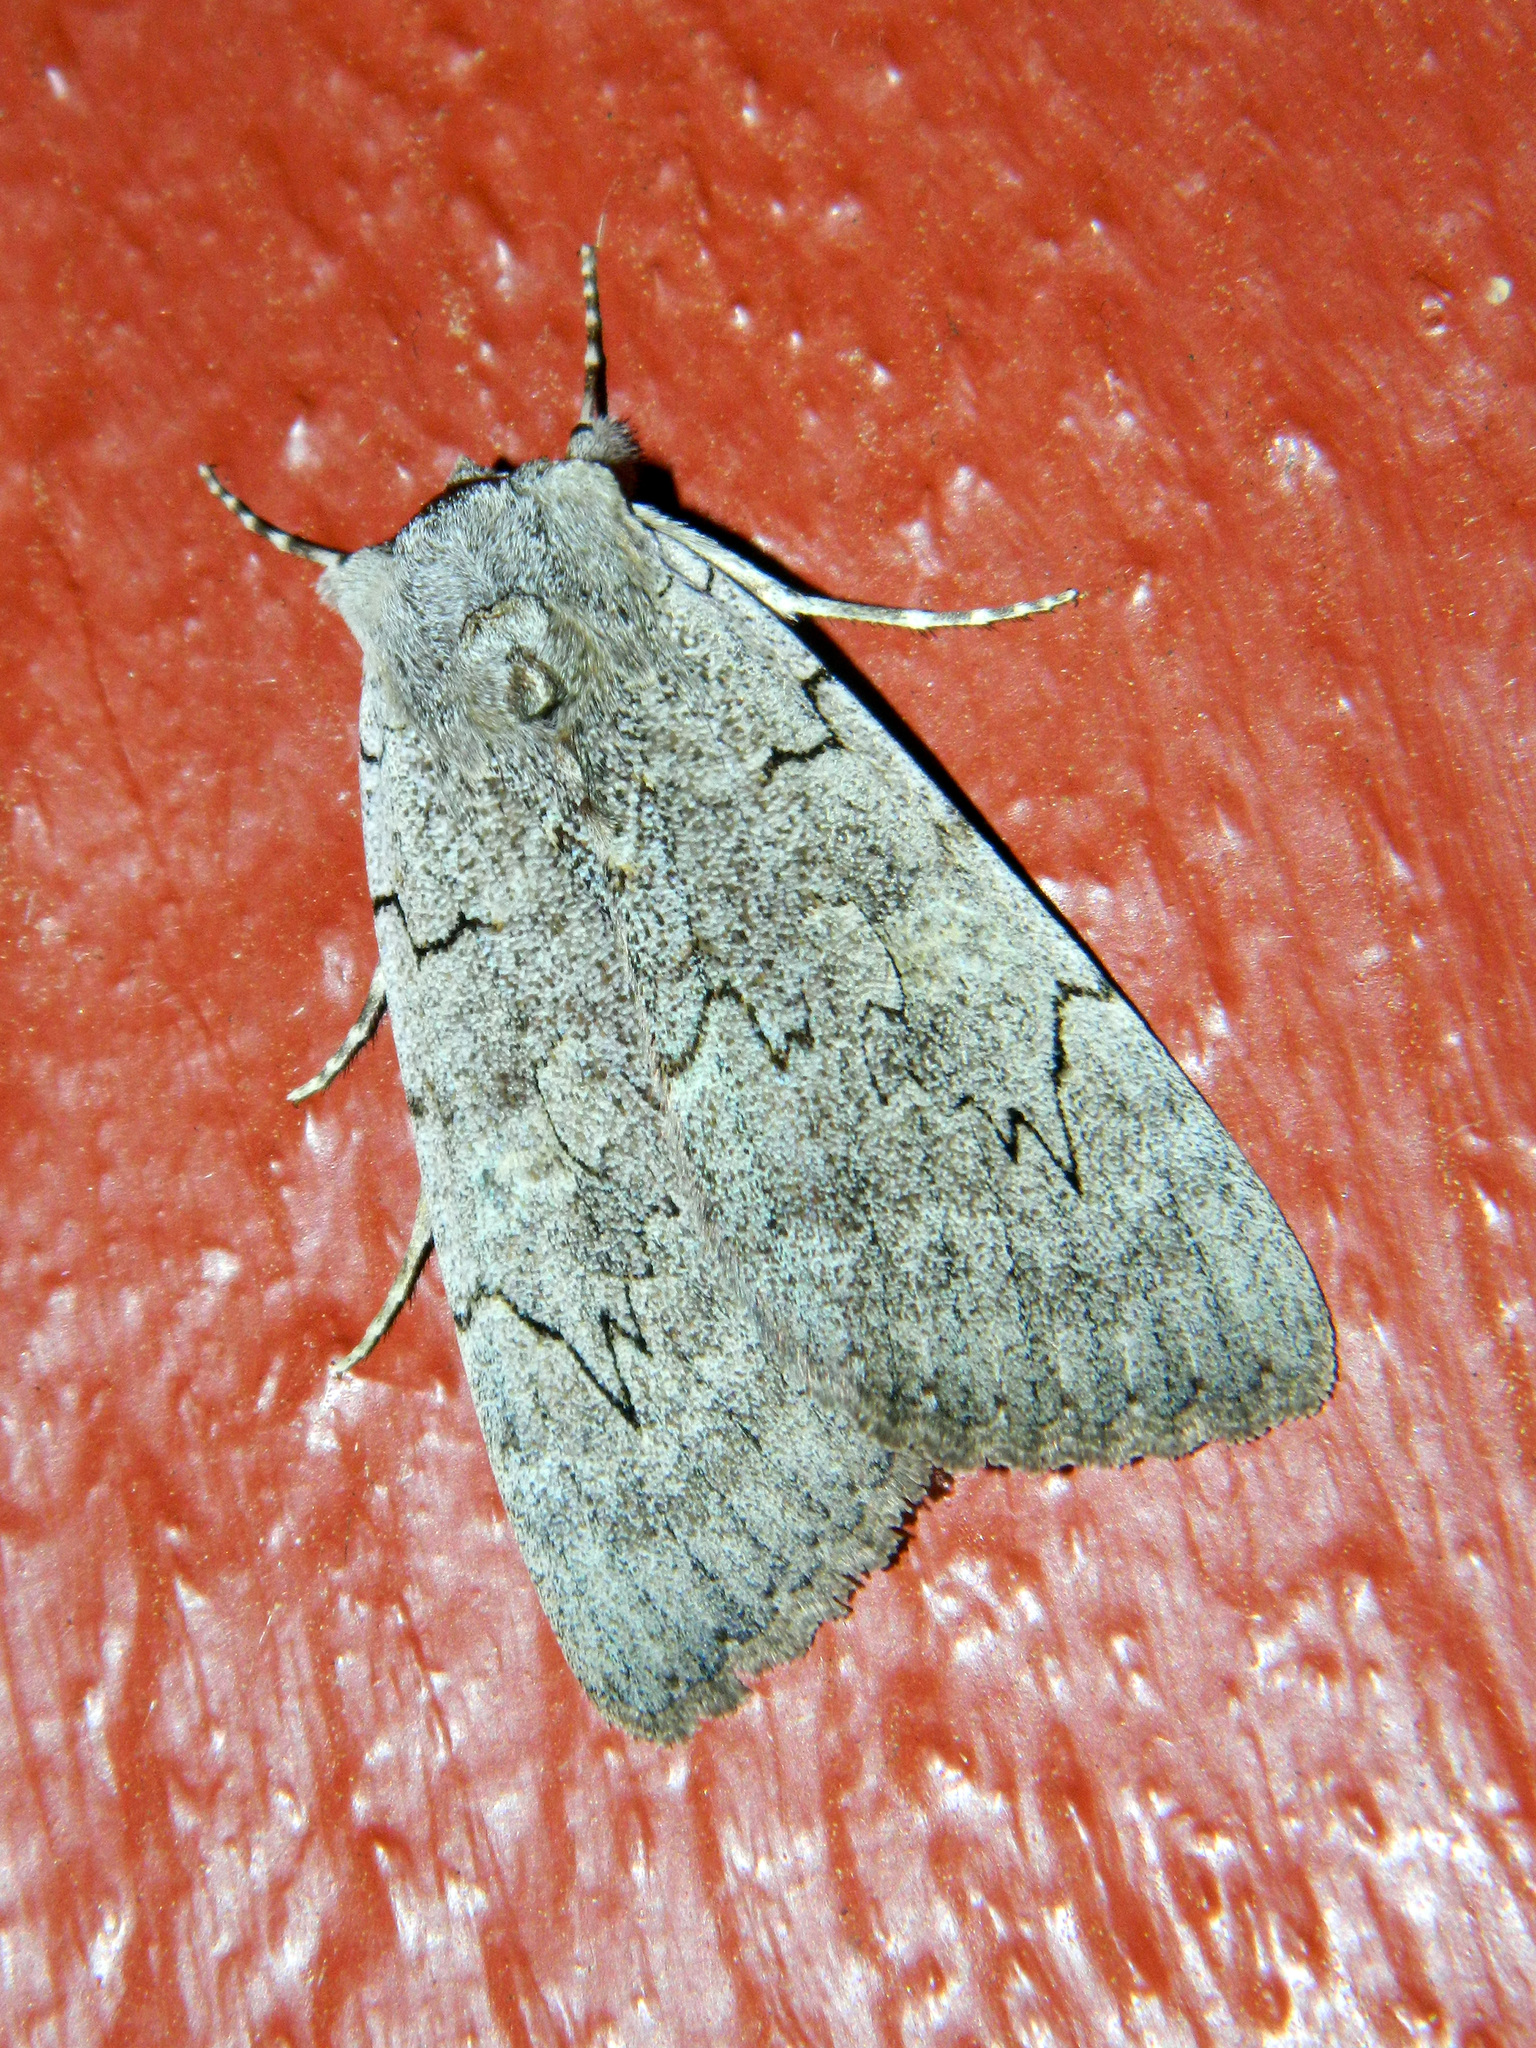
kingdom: Animalia
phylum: Arthropoda
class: Insecta
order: Lepidoptera
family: Erebidae
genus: Catocala
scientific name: Catocala concumbens
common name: Pink underwing
